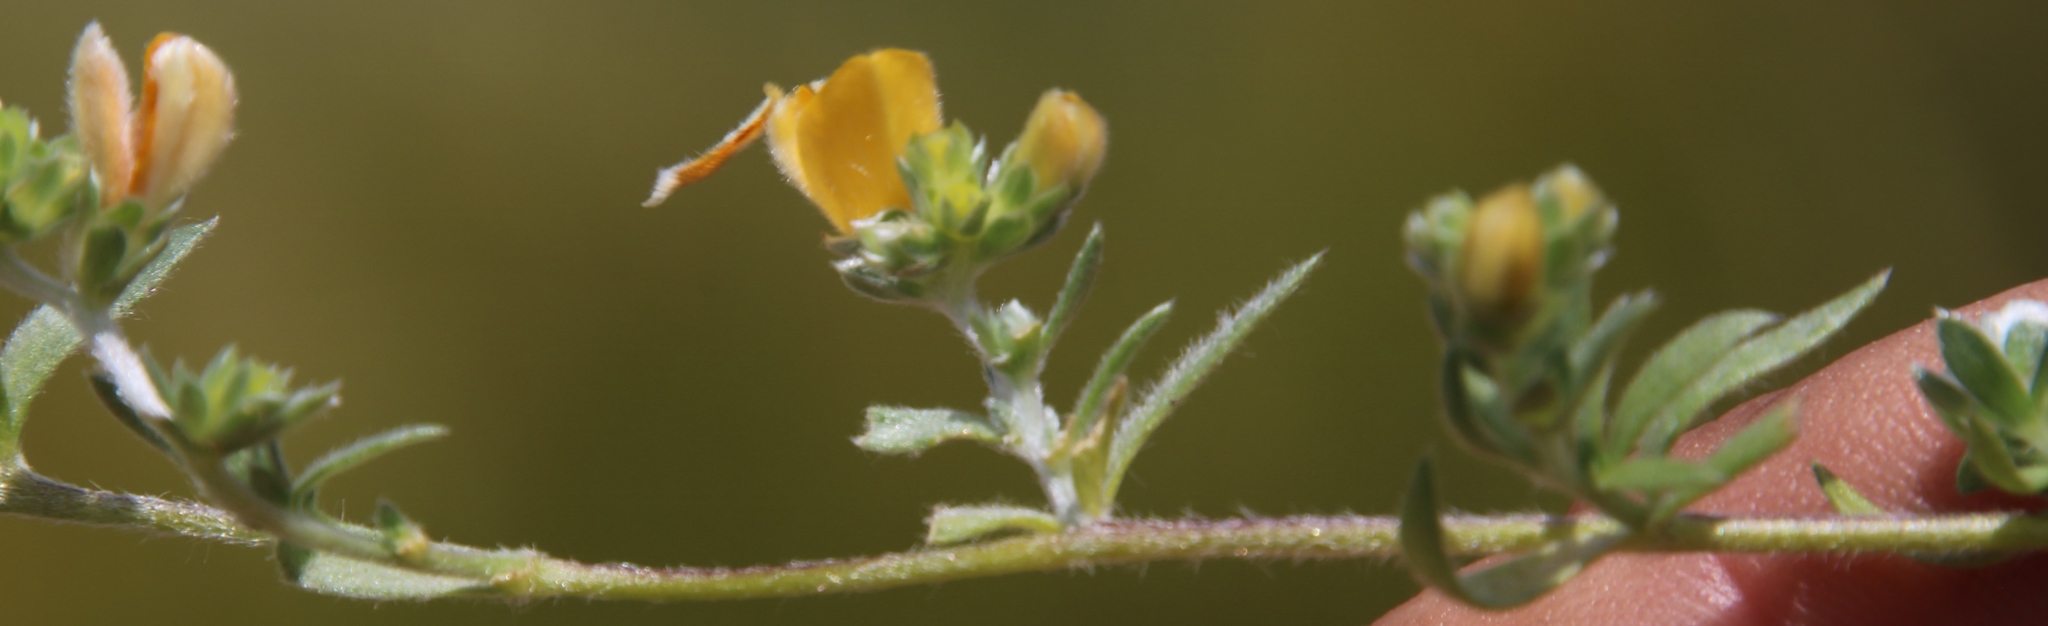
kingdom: Plantae
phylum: Tracheophyta
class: Magnoliopsida
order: Fabales
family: Fabaceae
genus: Aspalathus
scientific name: Aspalathus bodkinii
